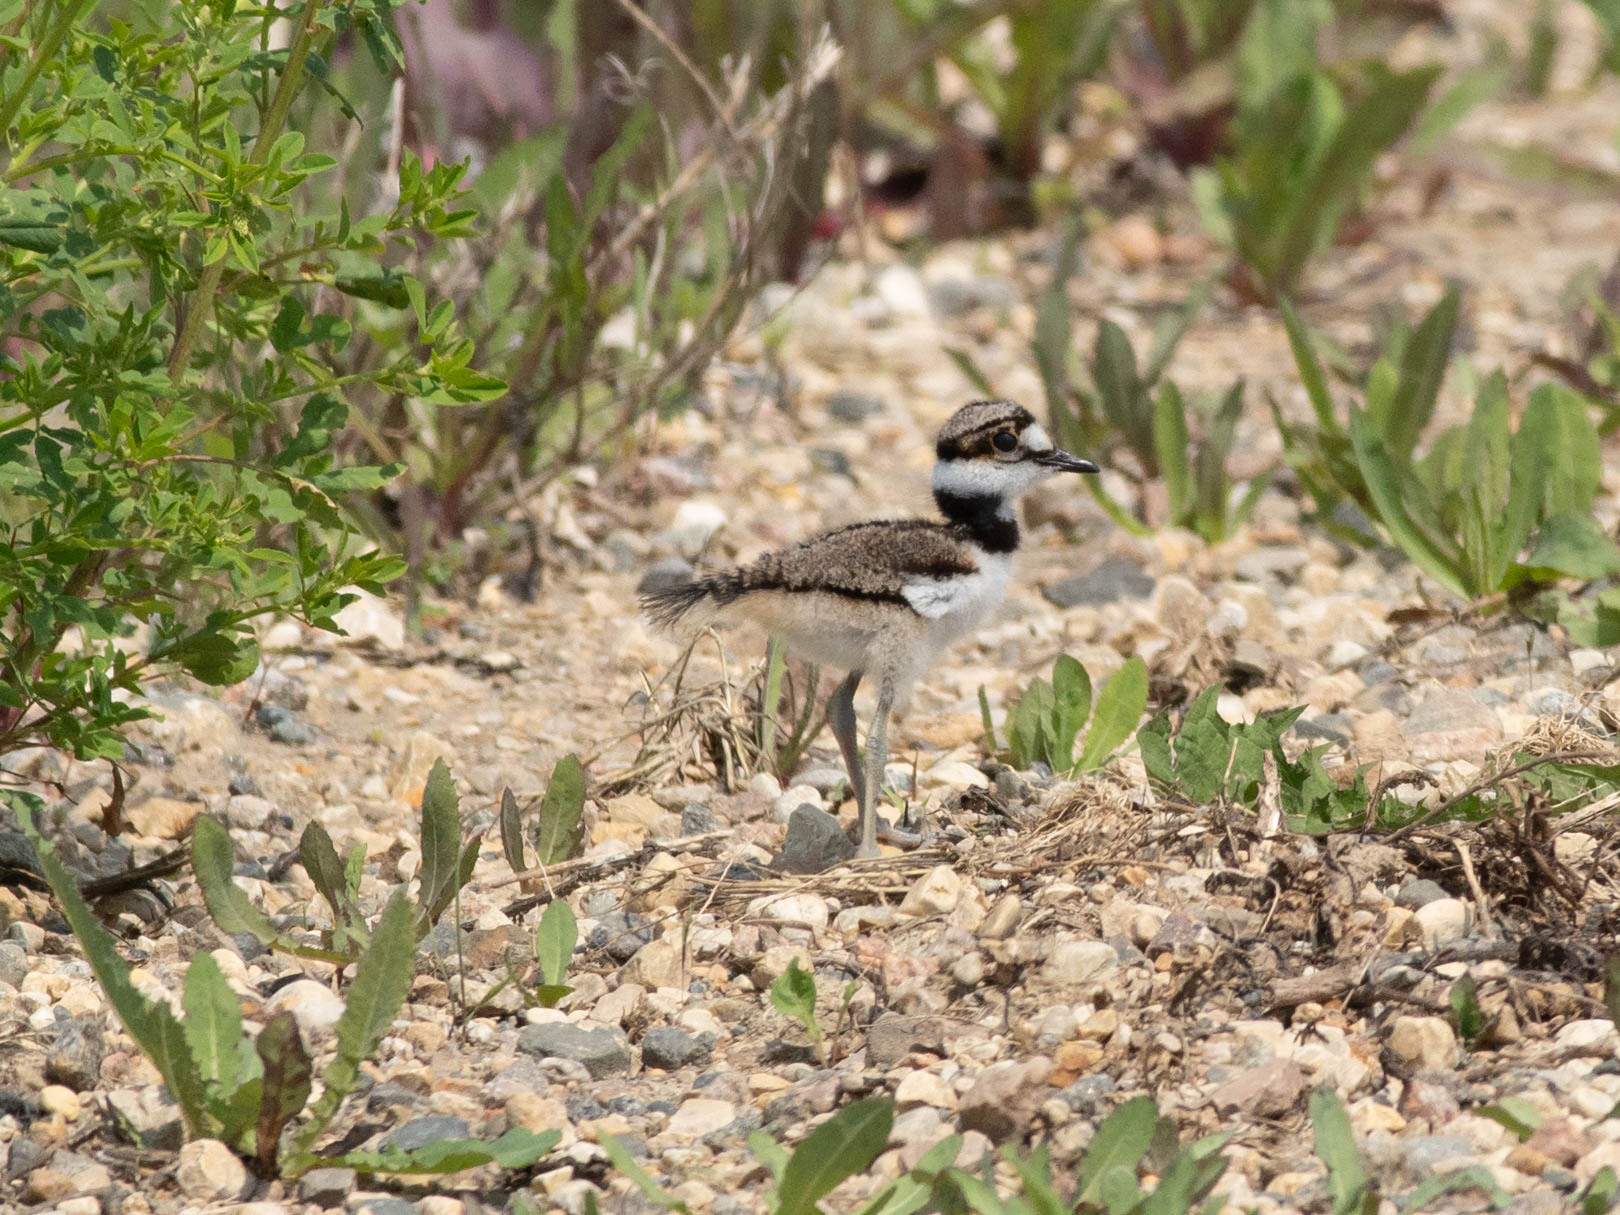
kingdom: Animalia
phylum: Chordata
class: Aves
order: Charadriiformes
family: Charadriidae
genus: Charadrius
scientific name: Charadrius vociferus
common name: Killdeer
